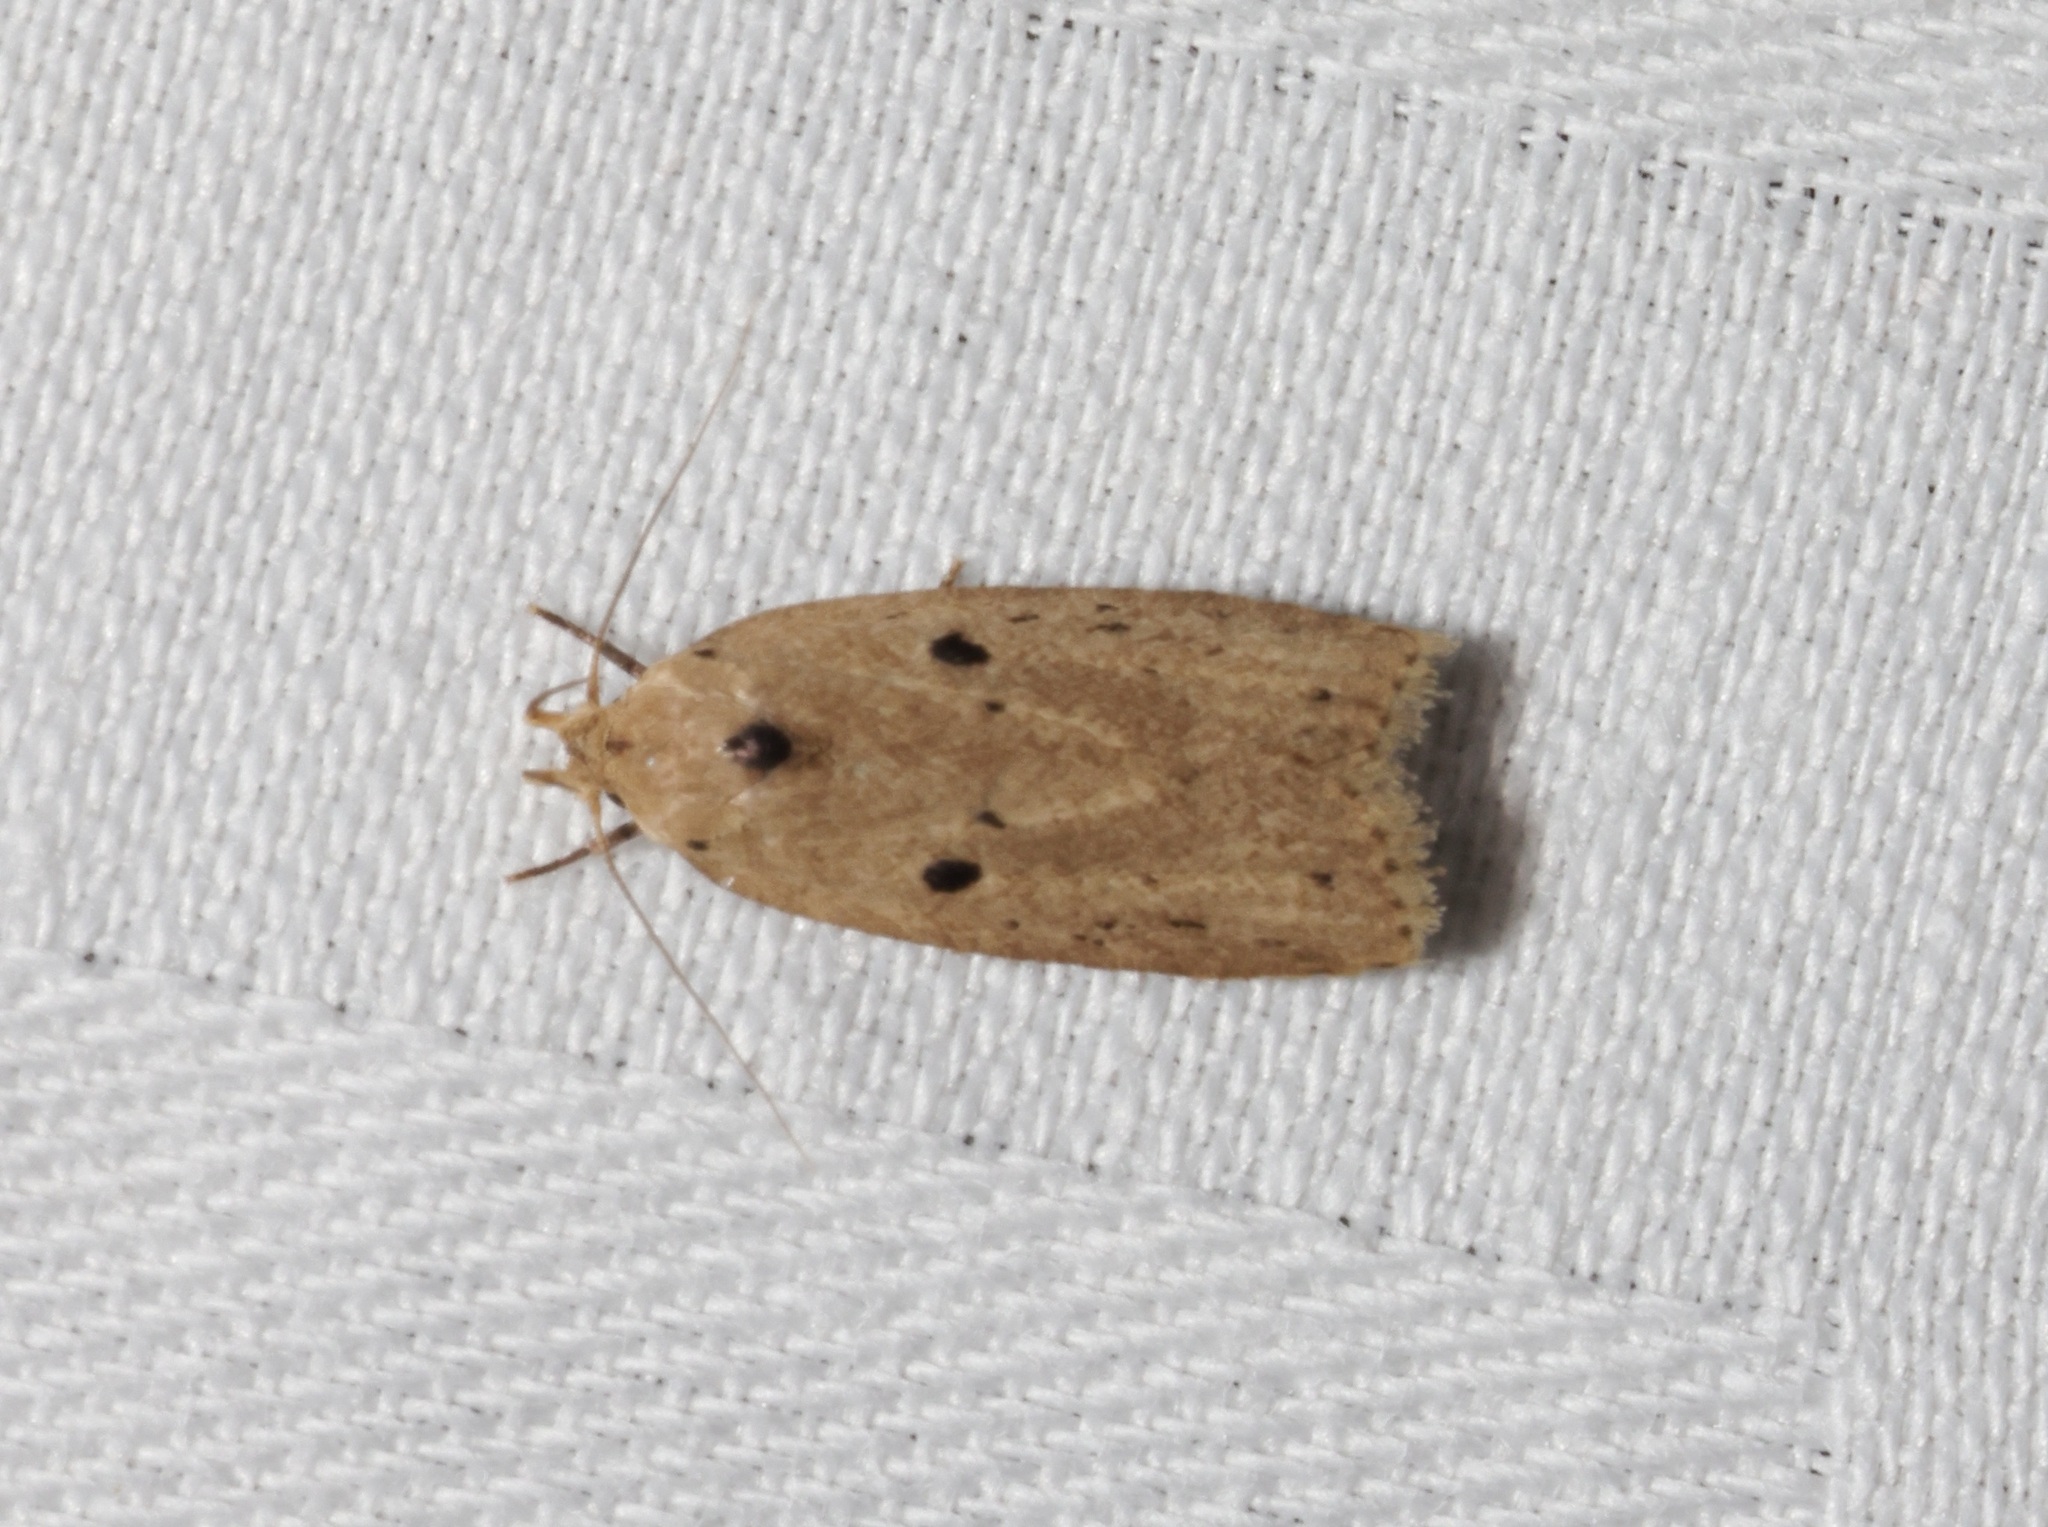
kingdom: Animalia
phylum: Arthropoda
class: Insecta
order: Lepidoptera
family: Peleopodidae
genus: Odites
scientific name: Odites ricinella
